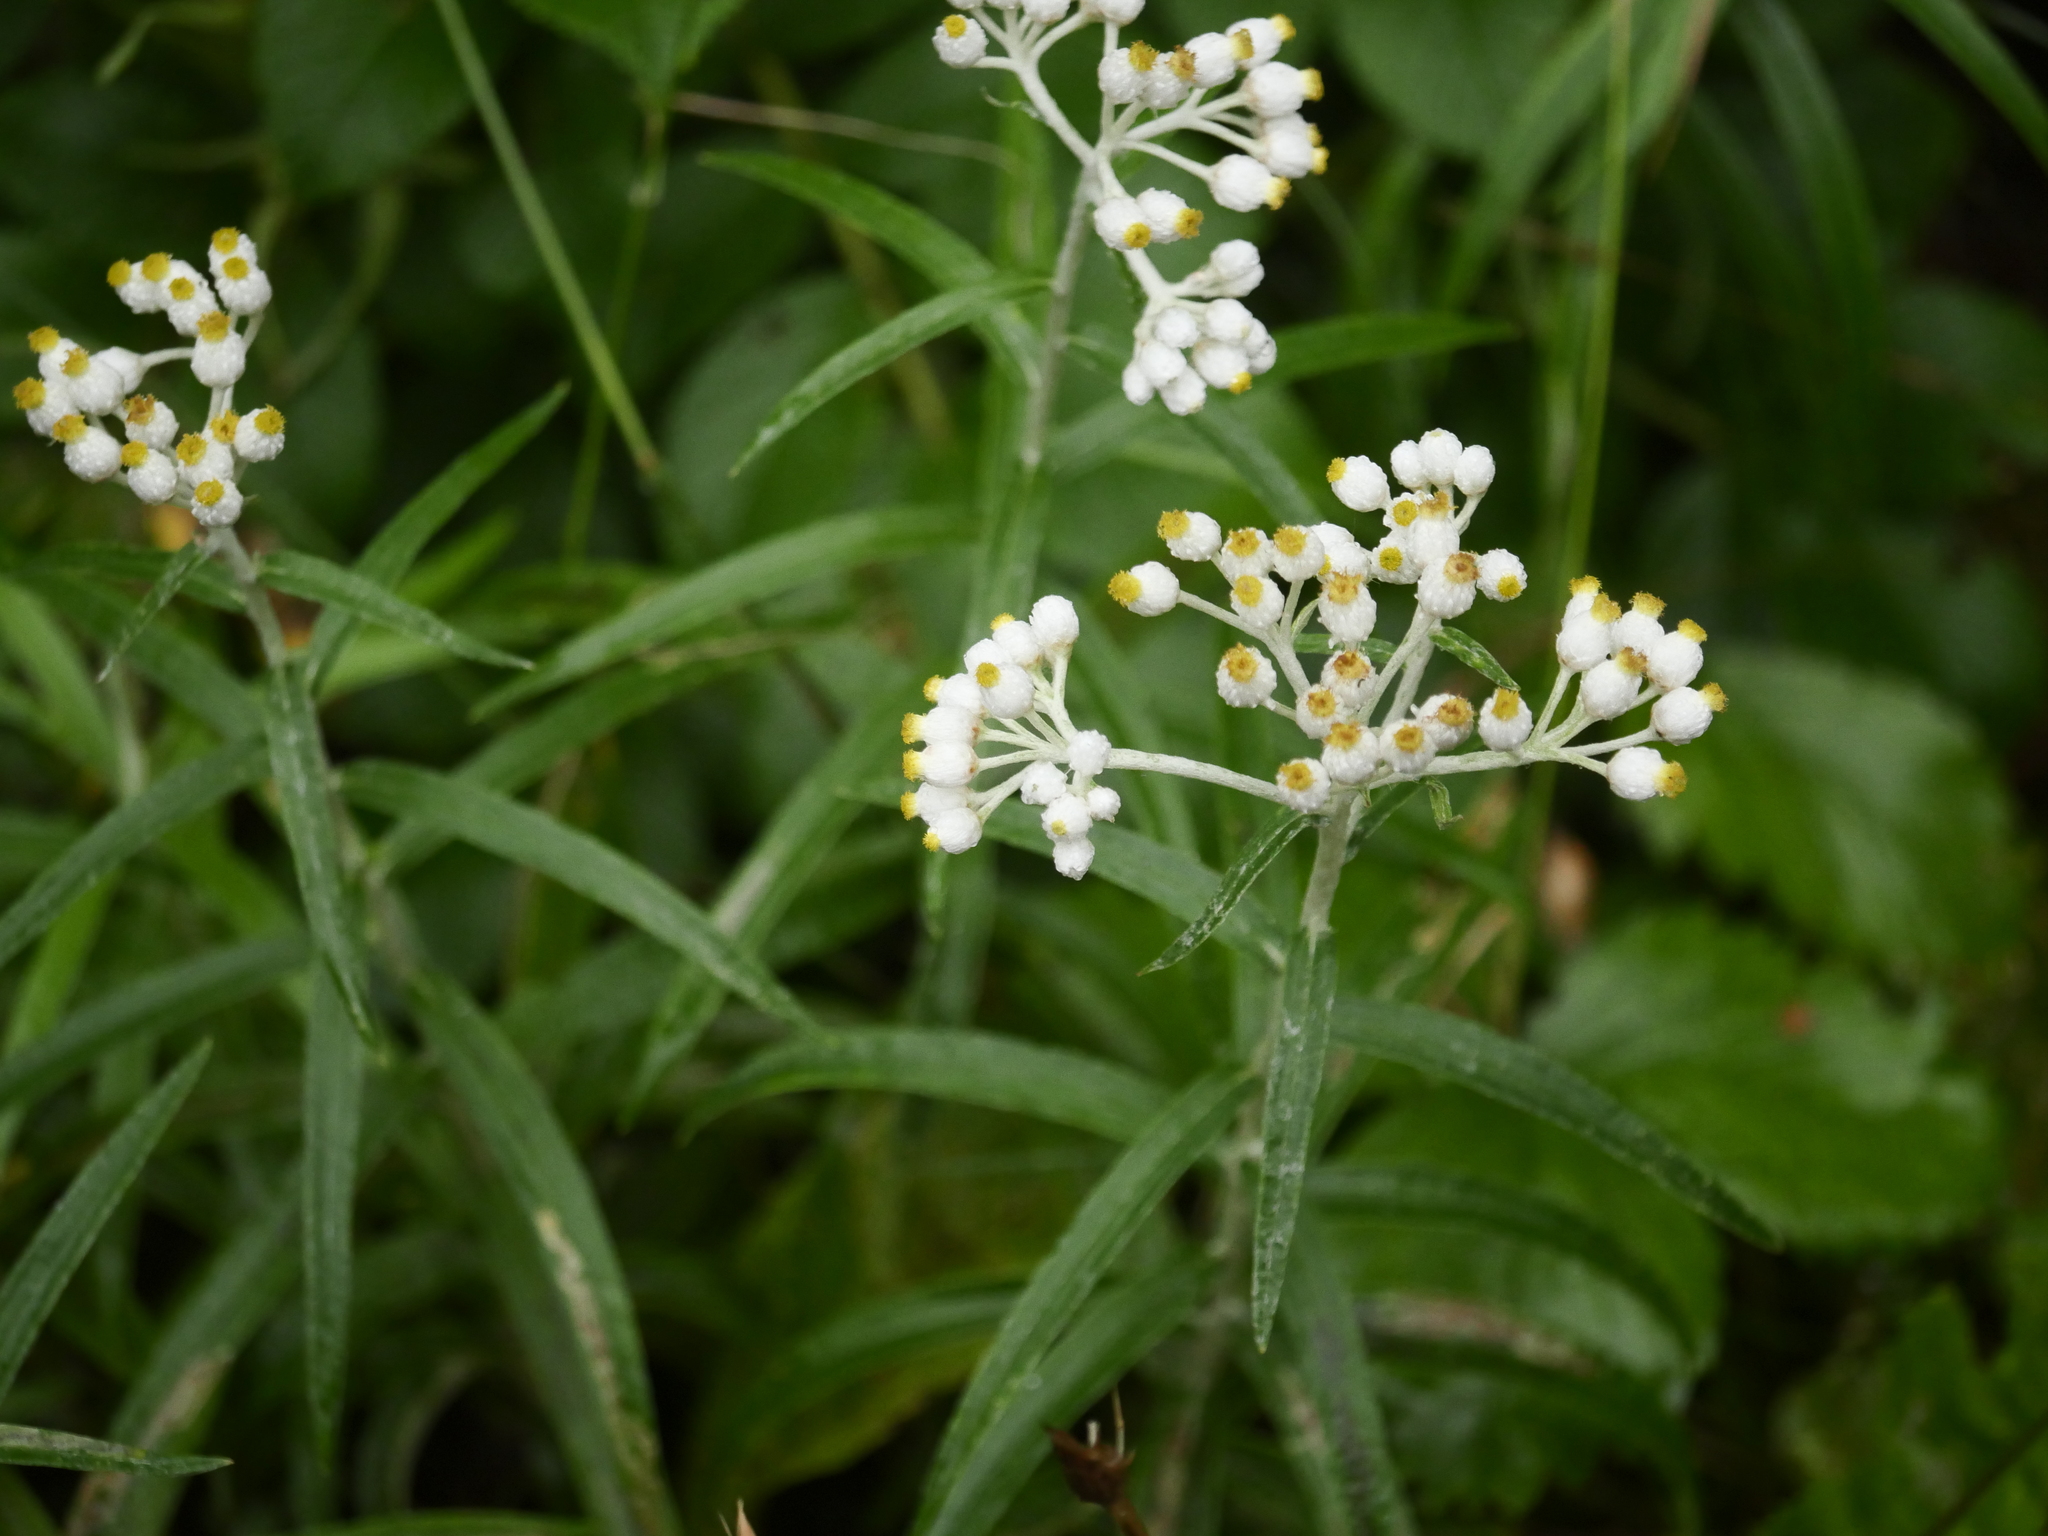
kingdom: Plantae
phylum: Tracheophyta
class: Magnoliopsida
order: Asterales
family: Asteraceae
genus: Anaphalis
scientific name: Anaphalis margaritacea
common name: Pearly everlasting
